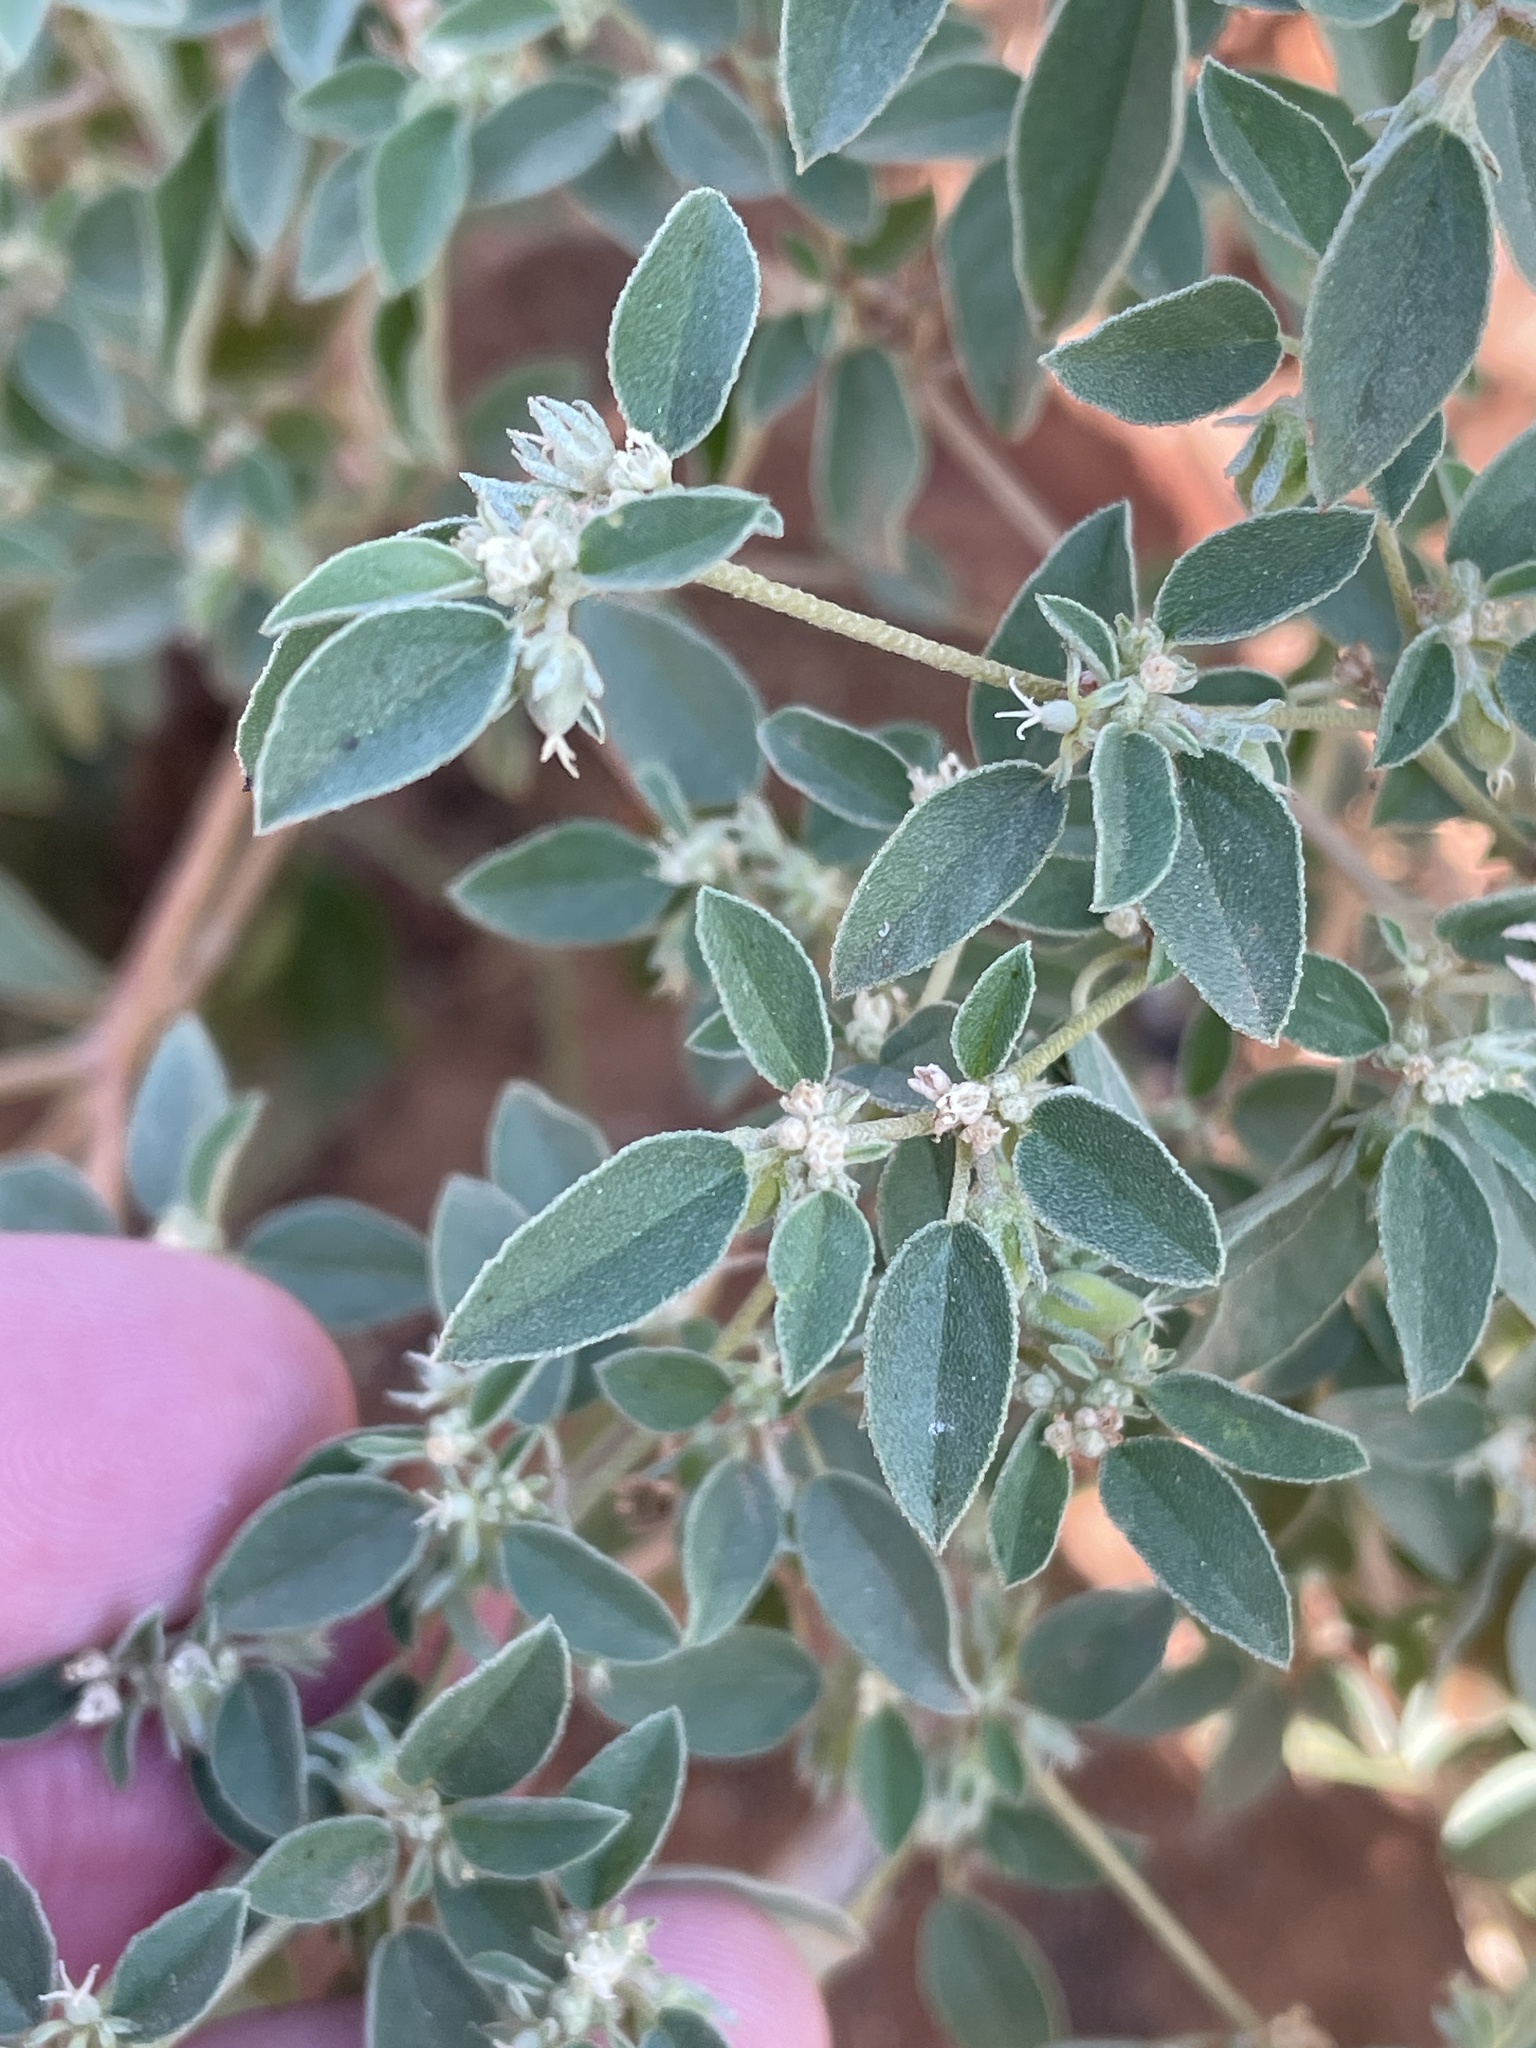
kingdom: Plantae
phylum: Tracheophyta
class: Magnoliopsida
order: Malpighiales
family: Euphorbiaceae
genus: Croton
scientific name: Croton monanthogynus
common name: One-seed croton
